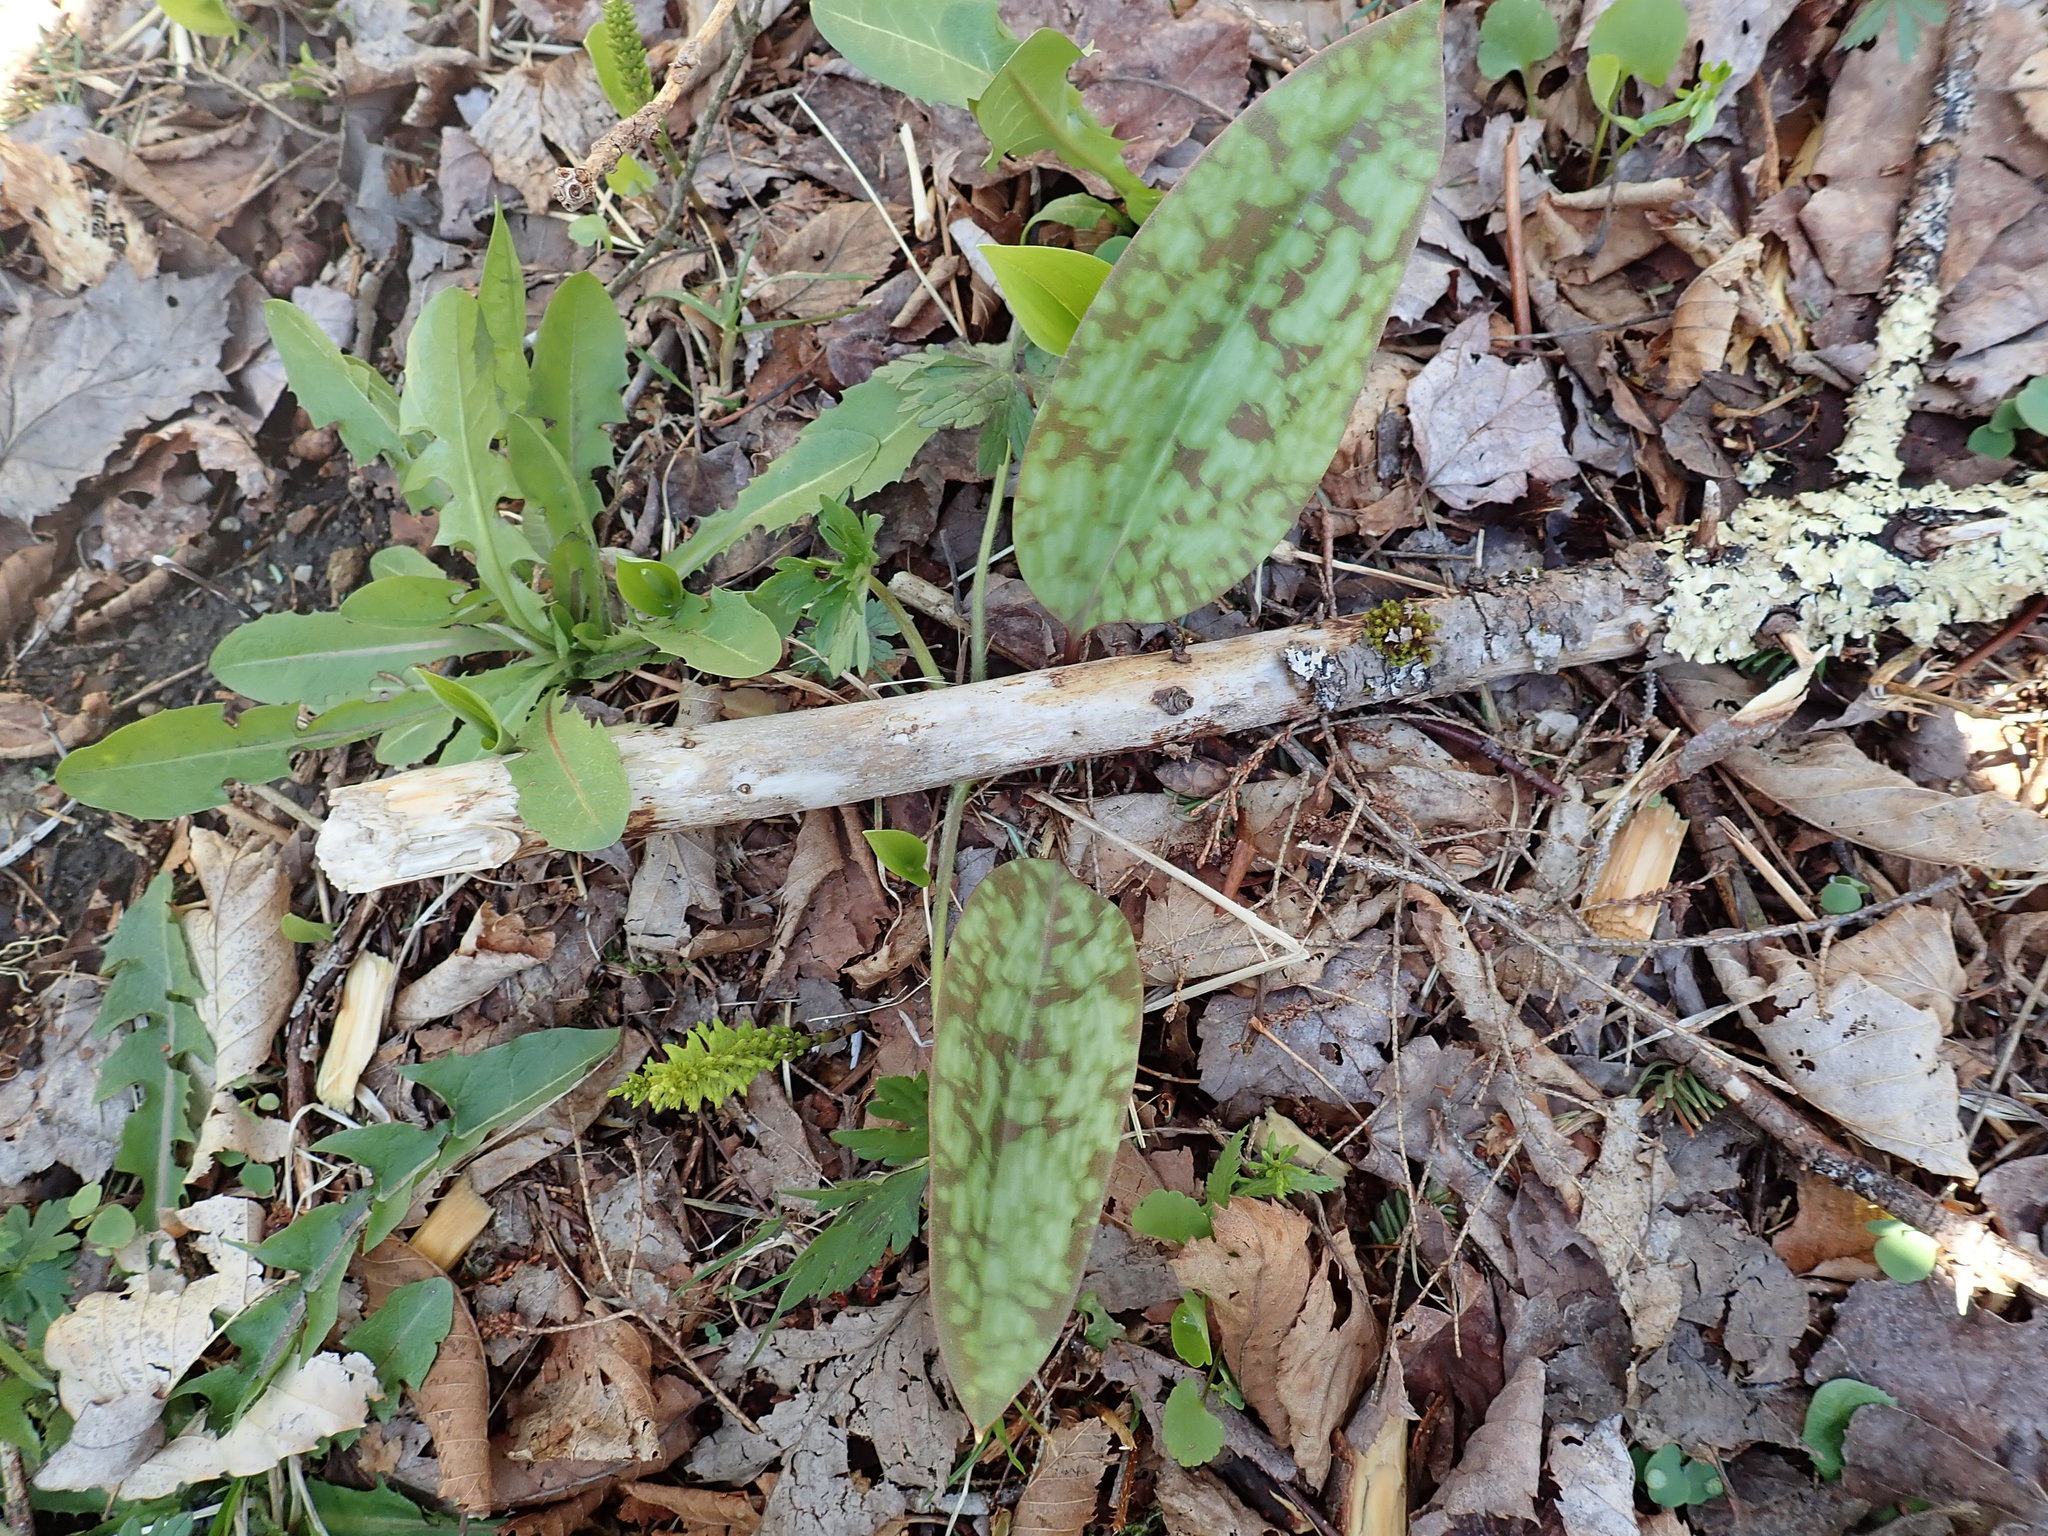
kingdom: Plantae
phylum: Tracheophyta
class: Liliopsida
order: Liliales
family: Liliaceae
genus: Erythronium
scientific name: Erythronium americanum
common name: Yellow adder's-tongue
